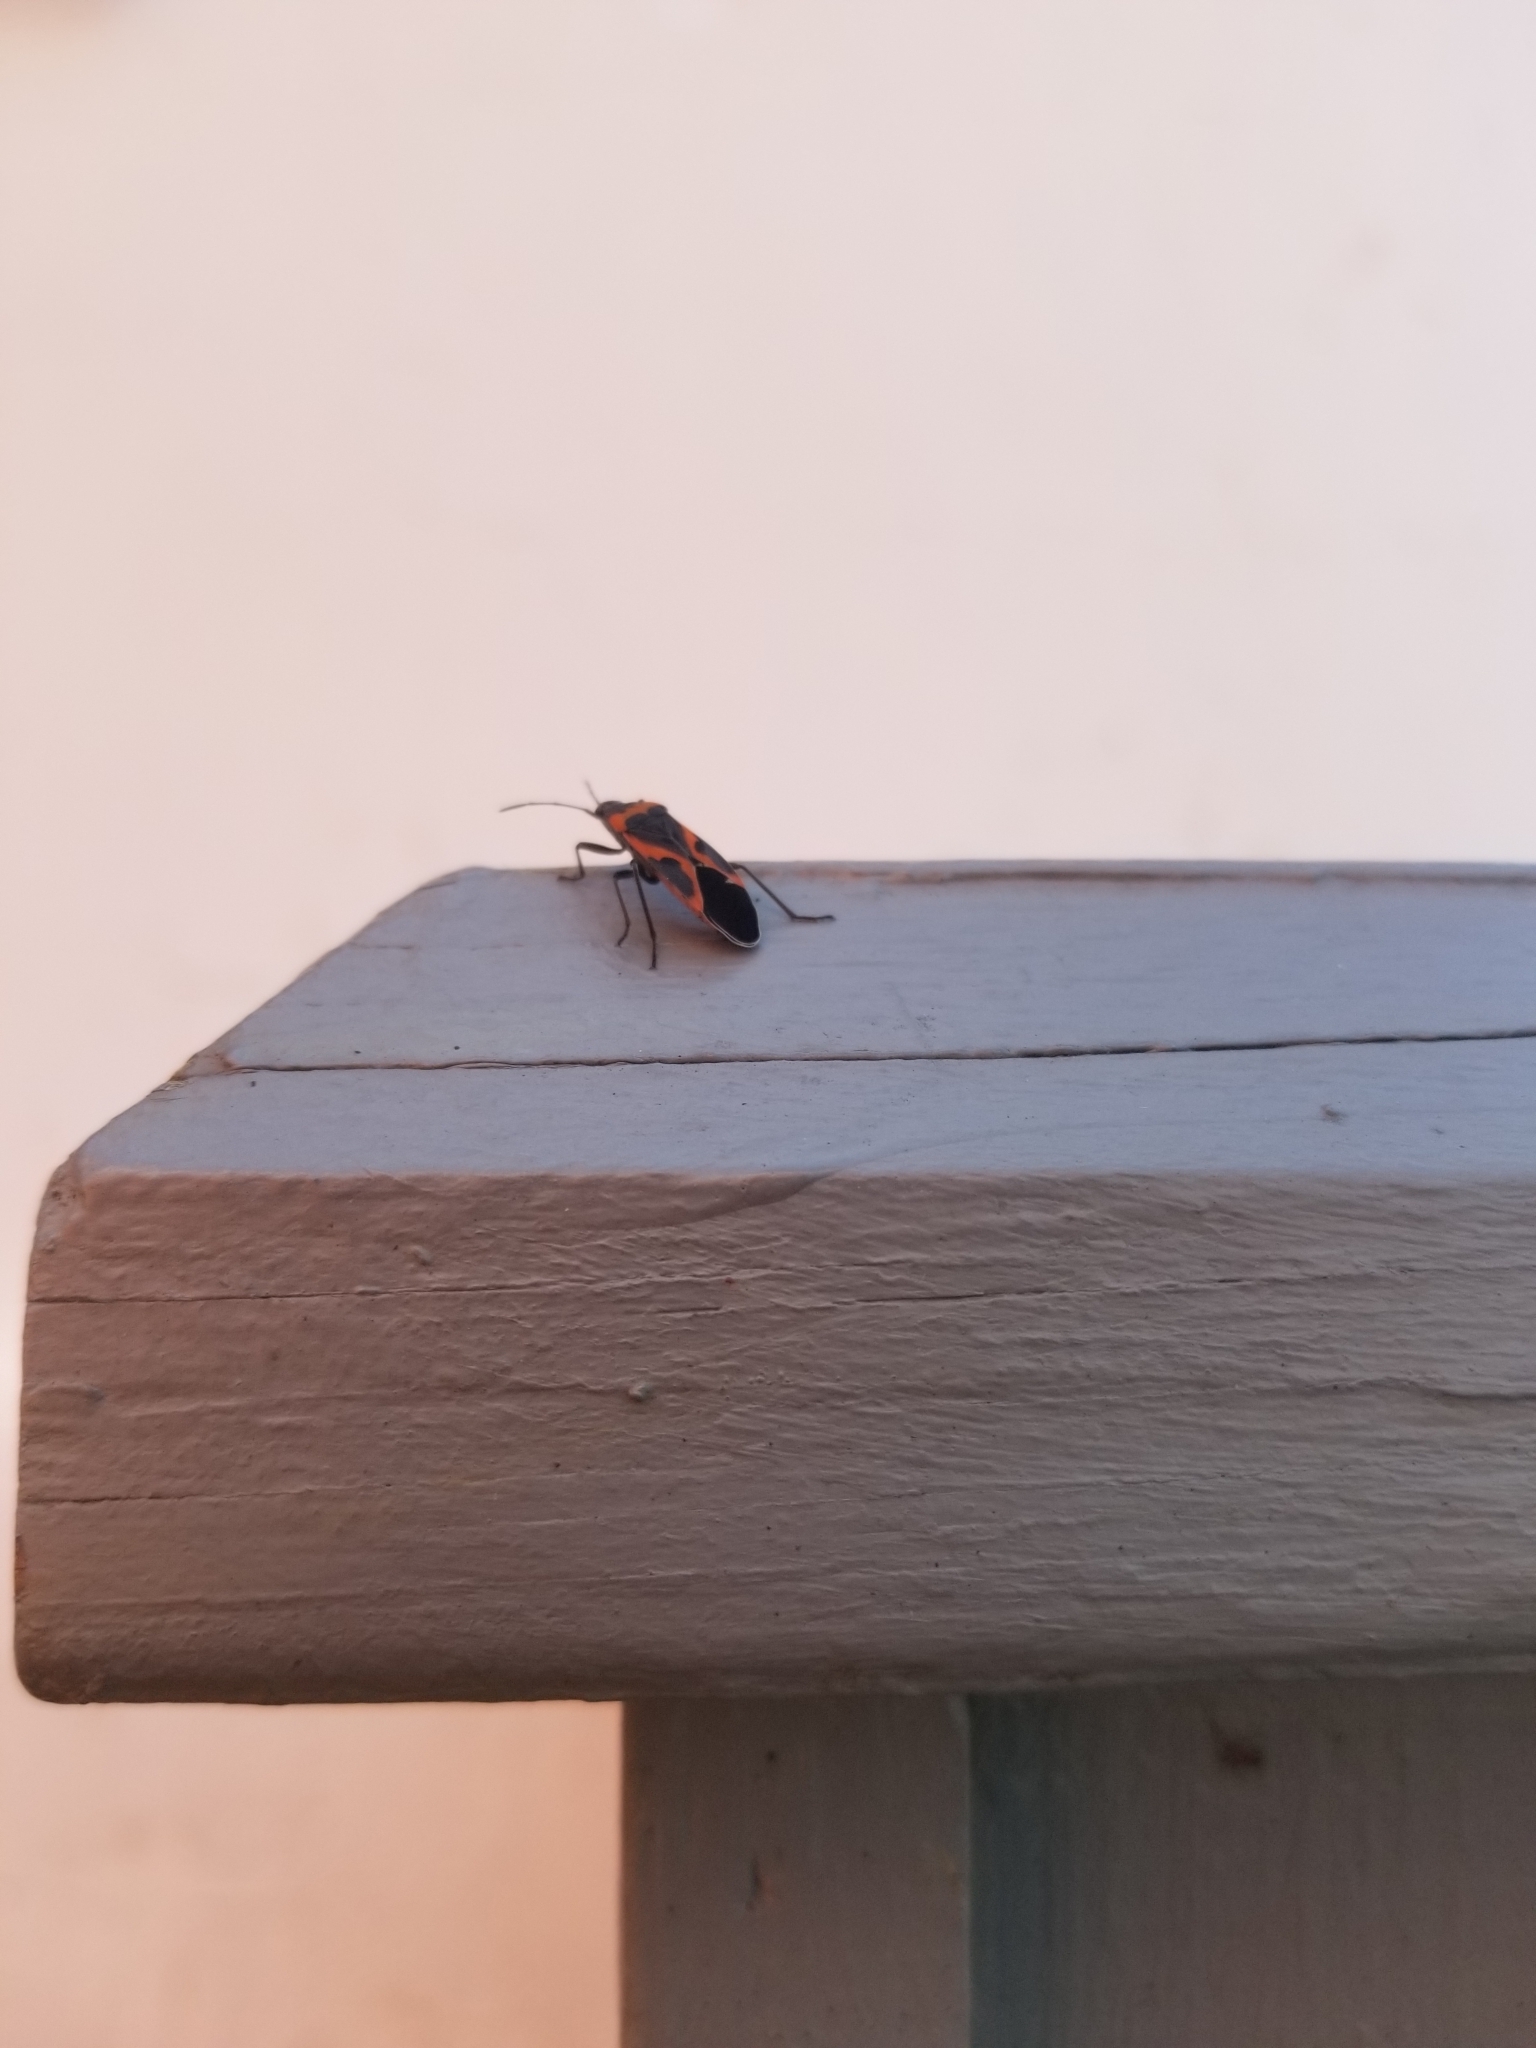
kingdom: Animalia
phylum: Arthropoda
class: Insecta
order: Hemiptera
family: Lygaeidae
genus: Lygaeus
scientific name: Lygaeus kalmii
